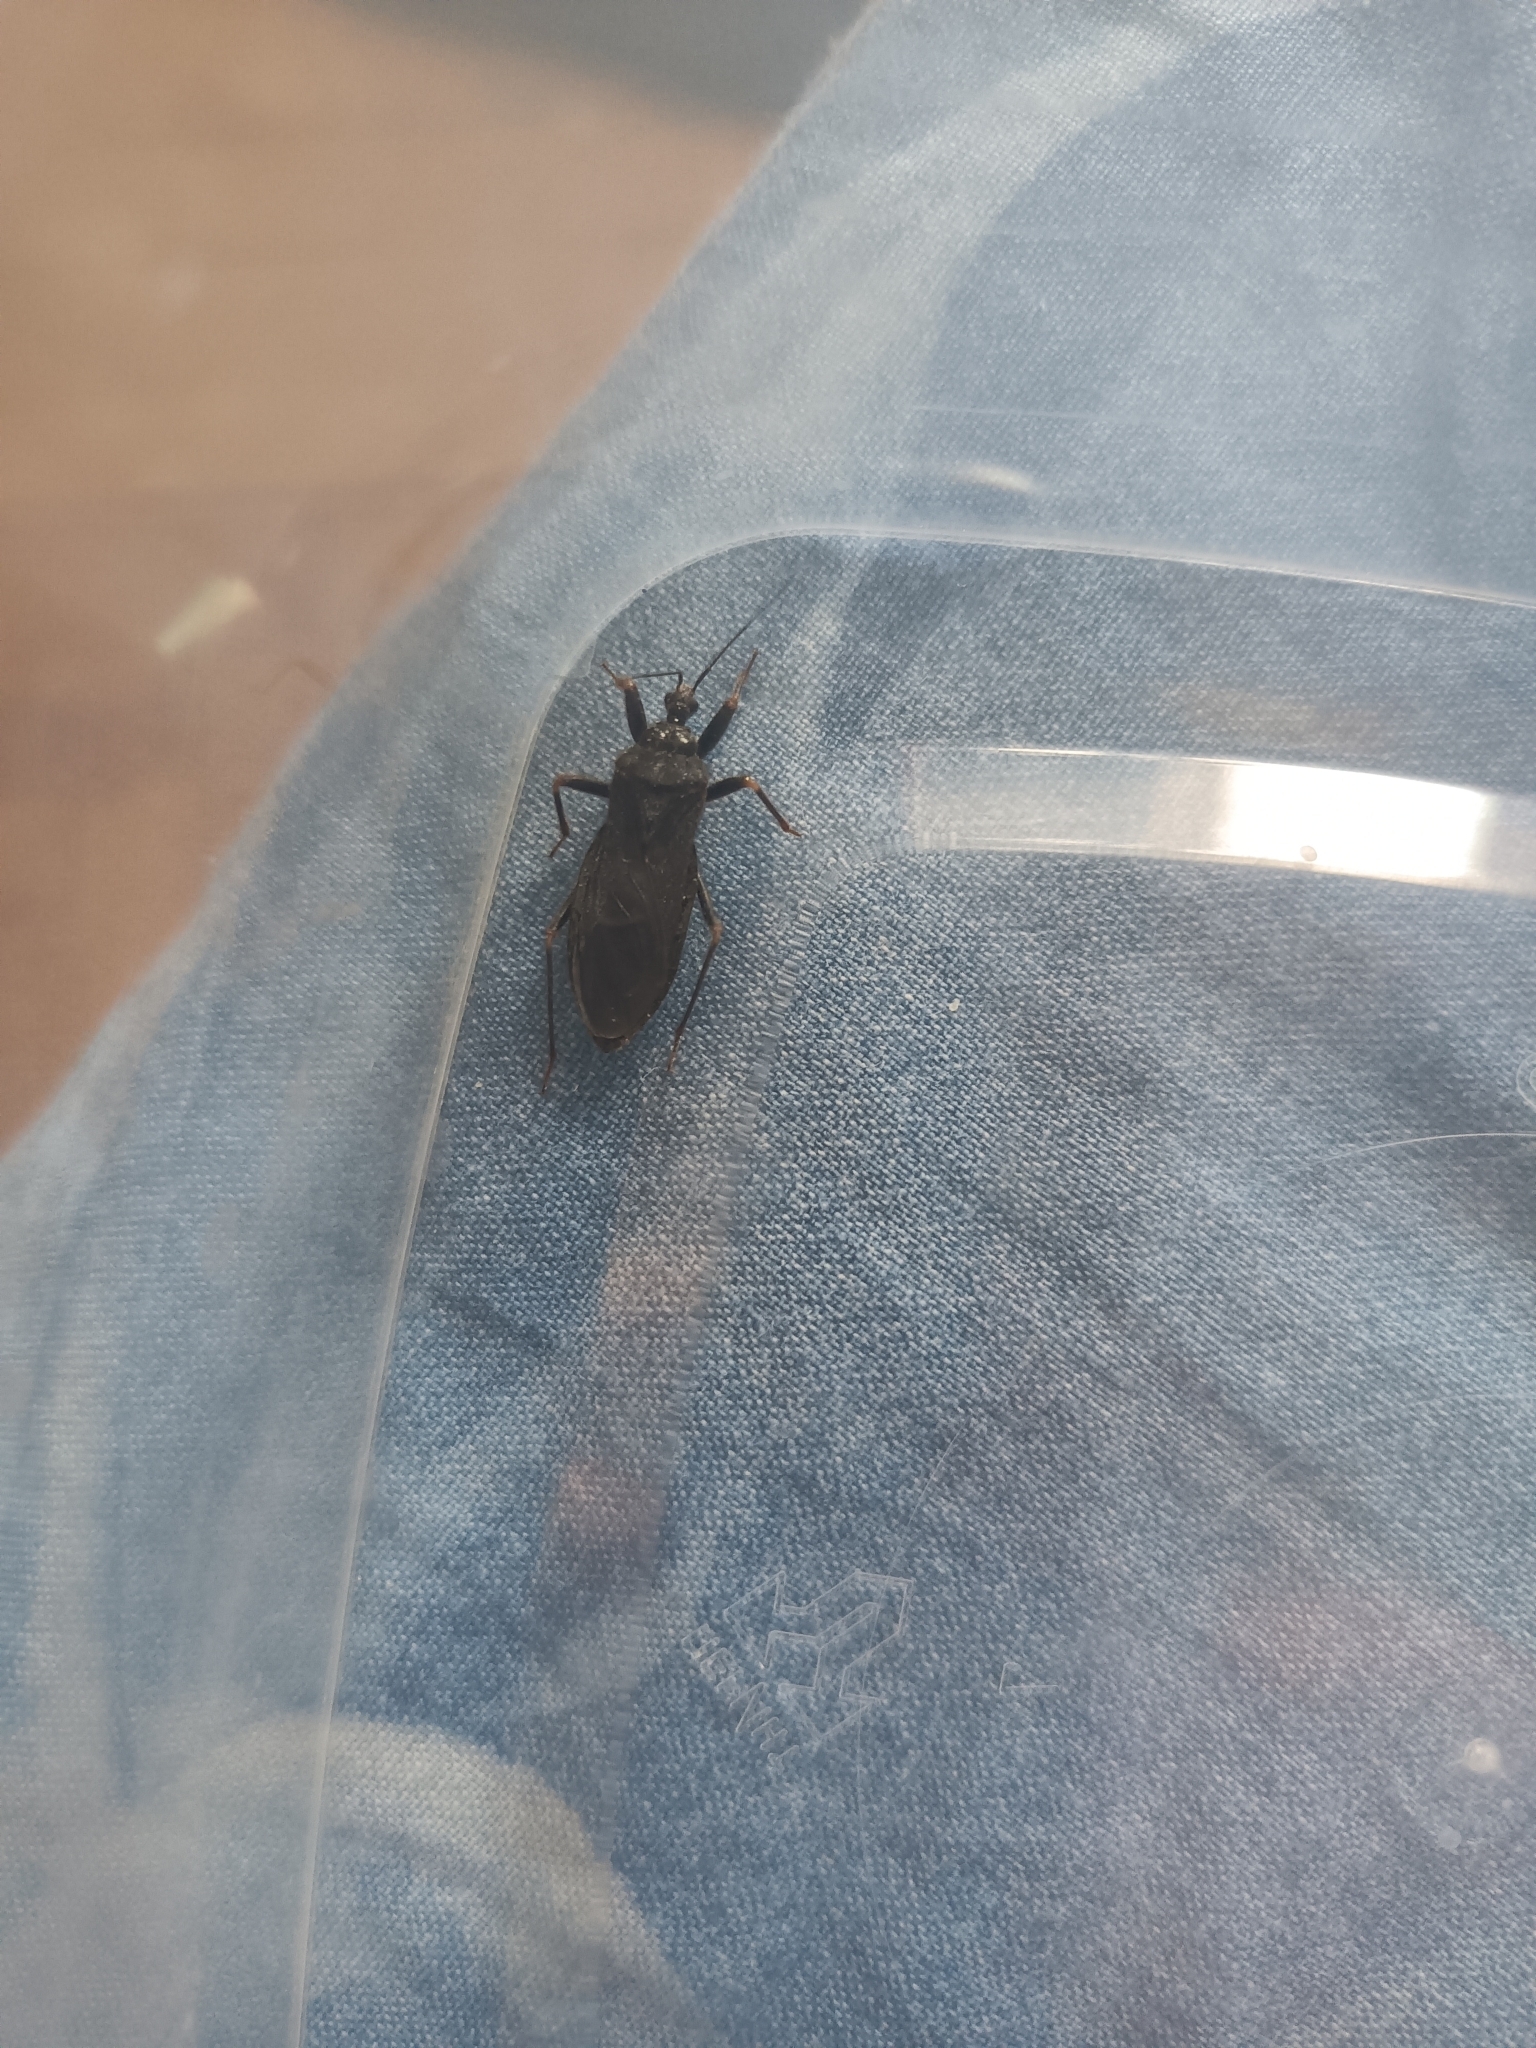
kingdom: Animalia
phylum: Arthropoda
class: Insecta
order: Hemiptera
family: Reduviidae
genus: Reduvius
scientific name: Reduvius personatus
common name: Masked hunter
